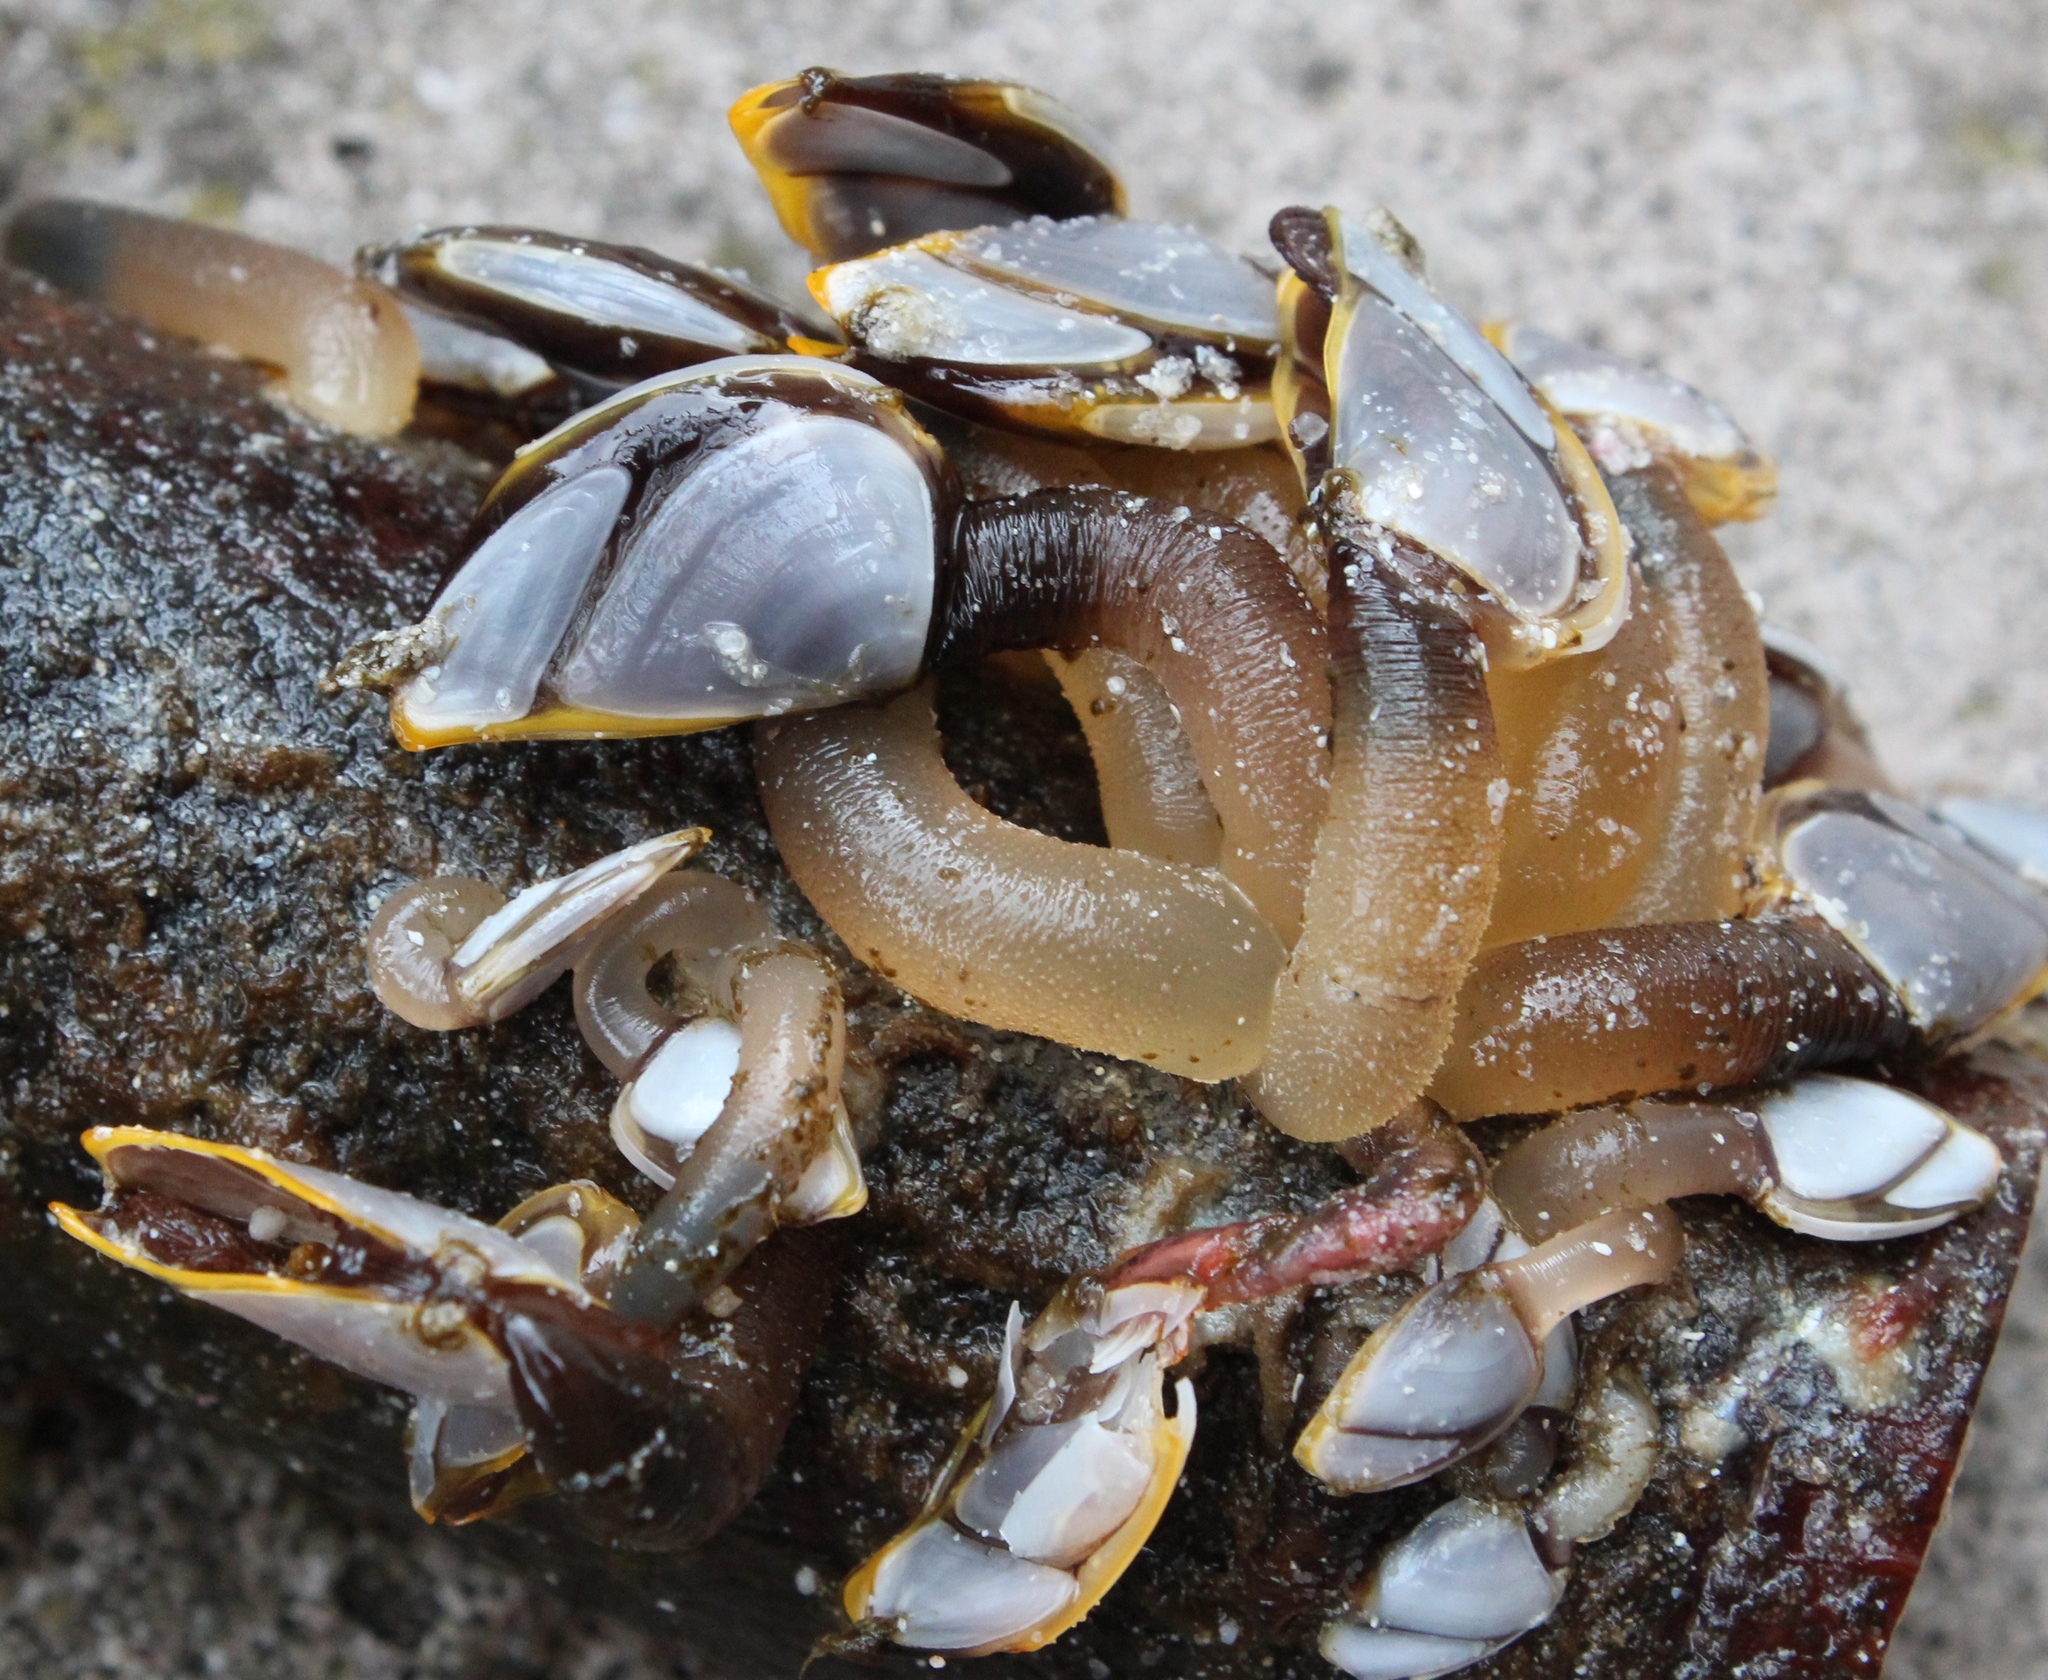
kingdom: Animalia
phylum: Arthropoda
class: Maxillopoda
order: Pedunculata
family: Lepadidae
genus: Lepas
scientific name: Lepas testudinata
